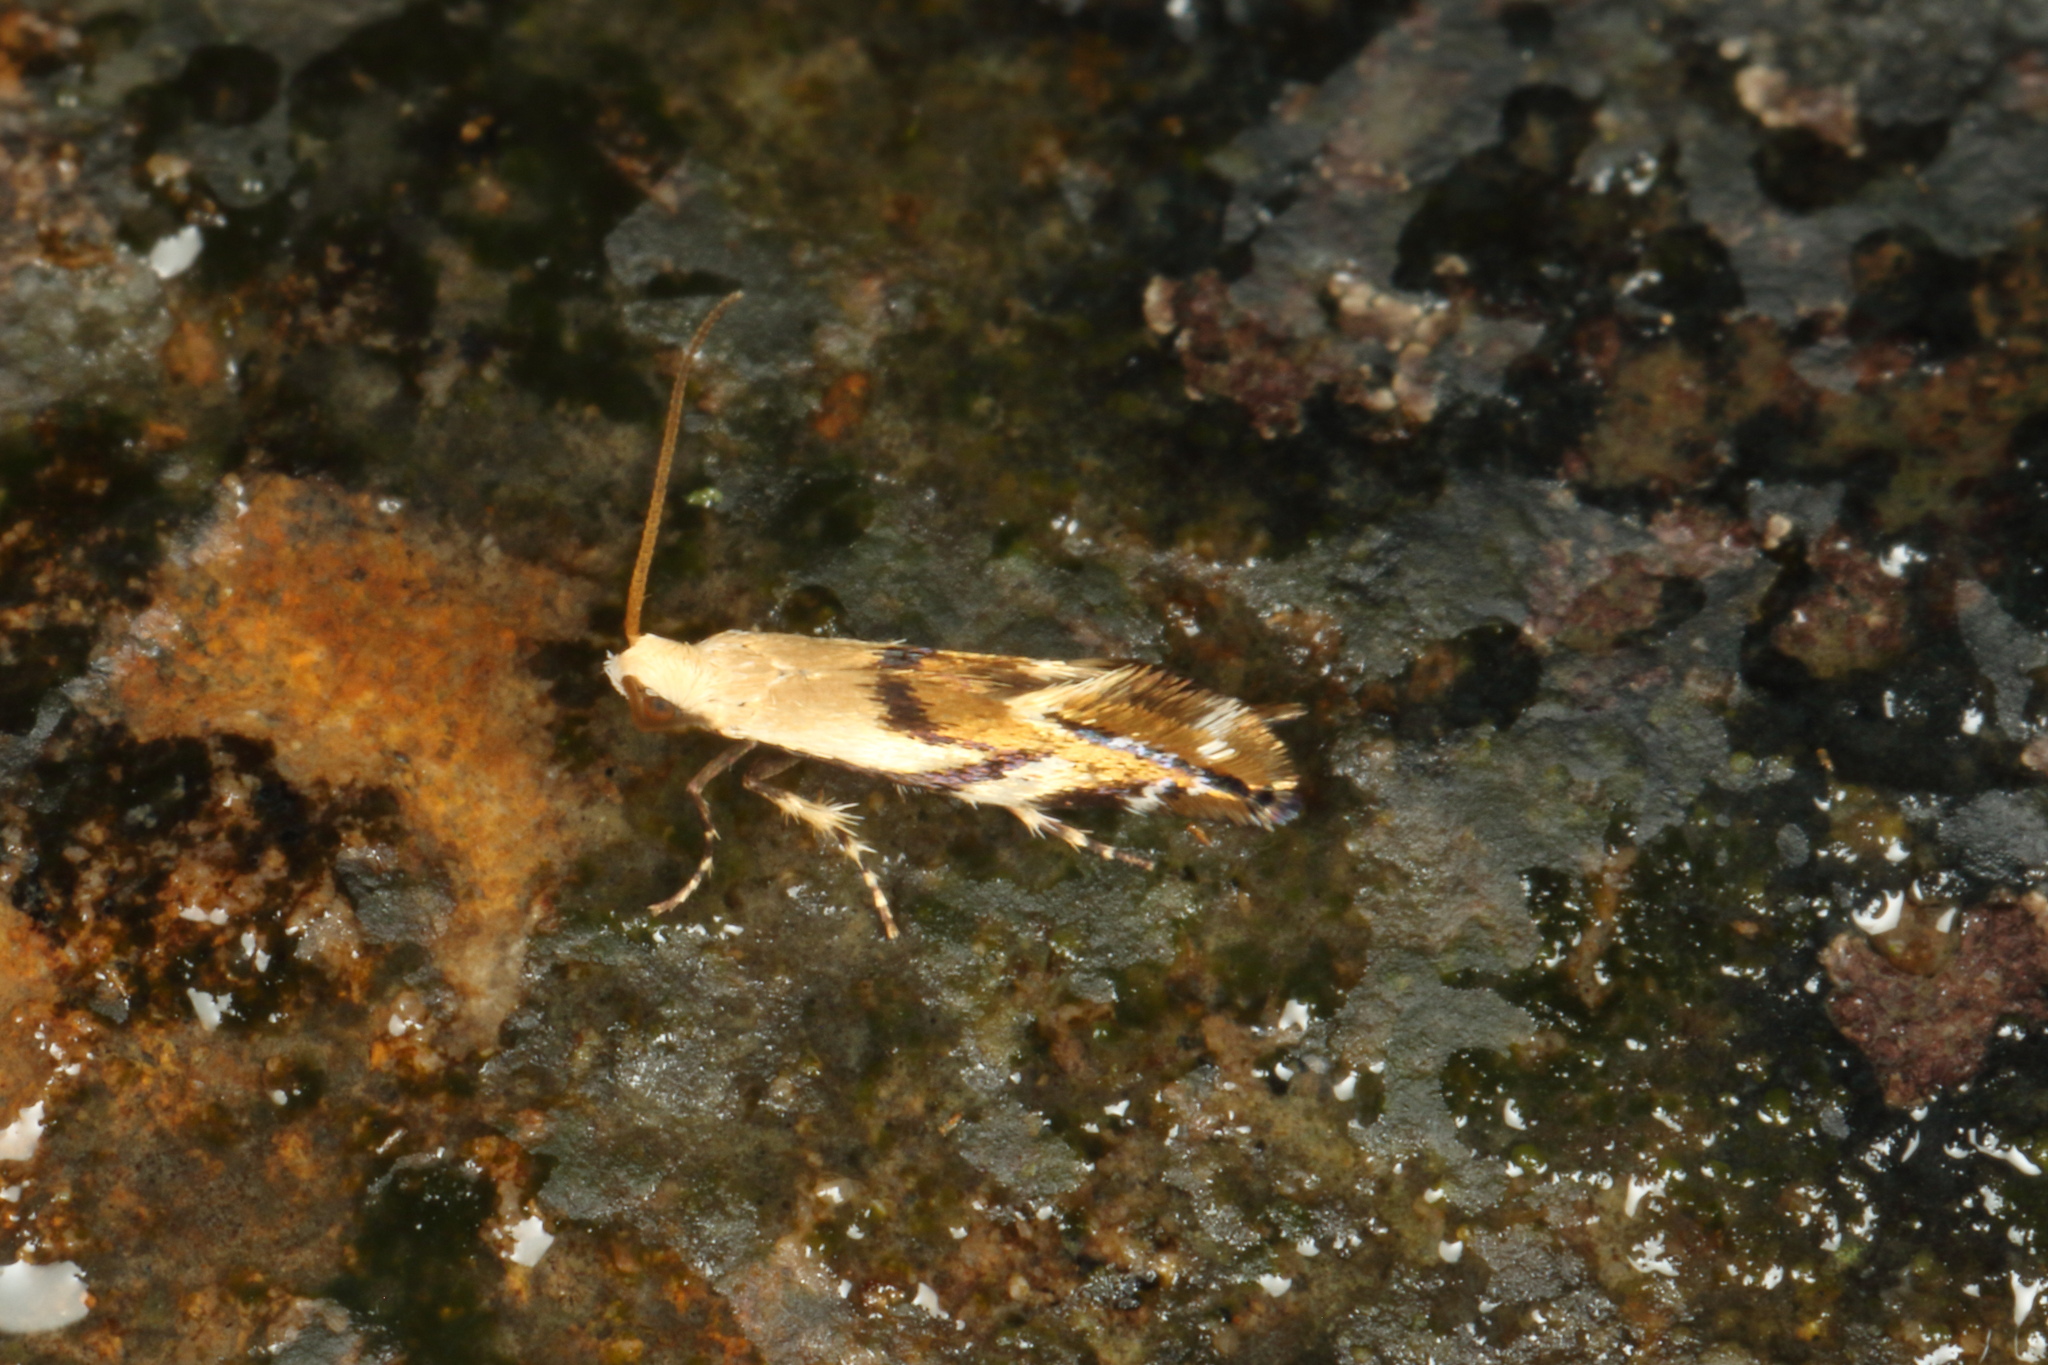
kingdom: Animalia
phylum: Arthropoda
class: Insecta
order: Lepidoptera
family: Mnesarchaeidae
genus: Mnesarchella
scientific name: Mnesarchella acuta
